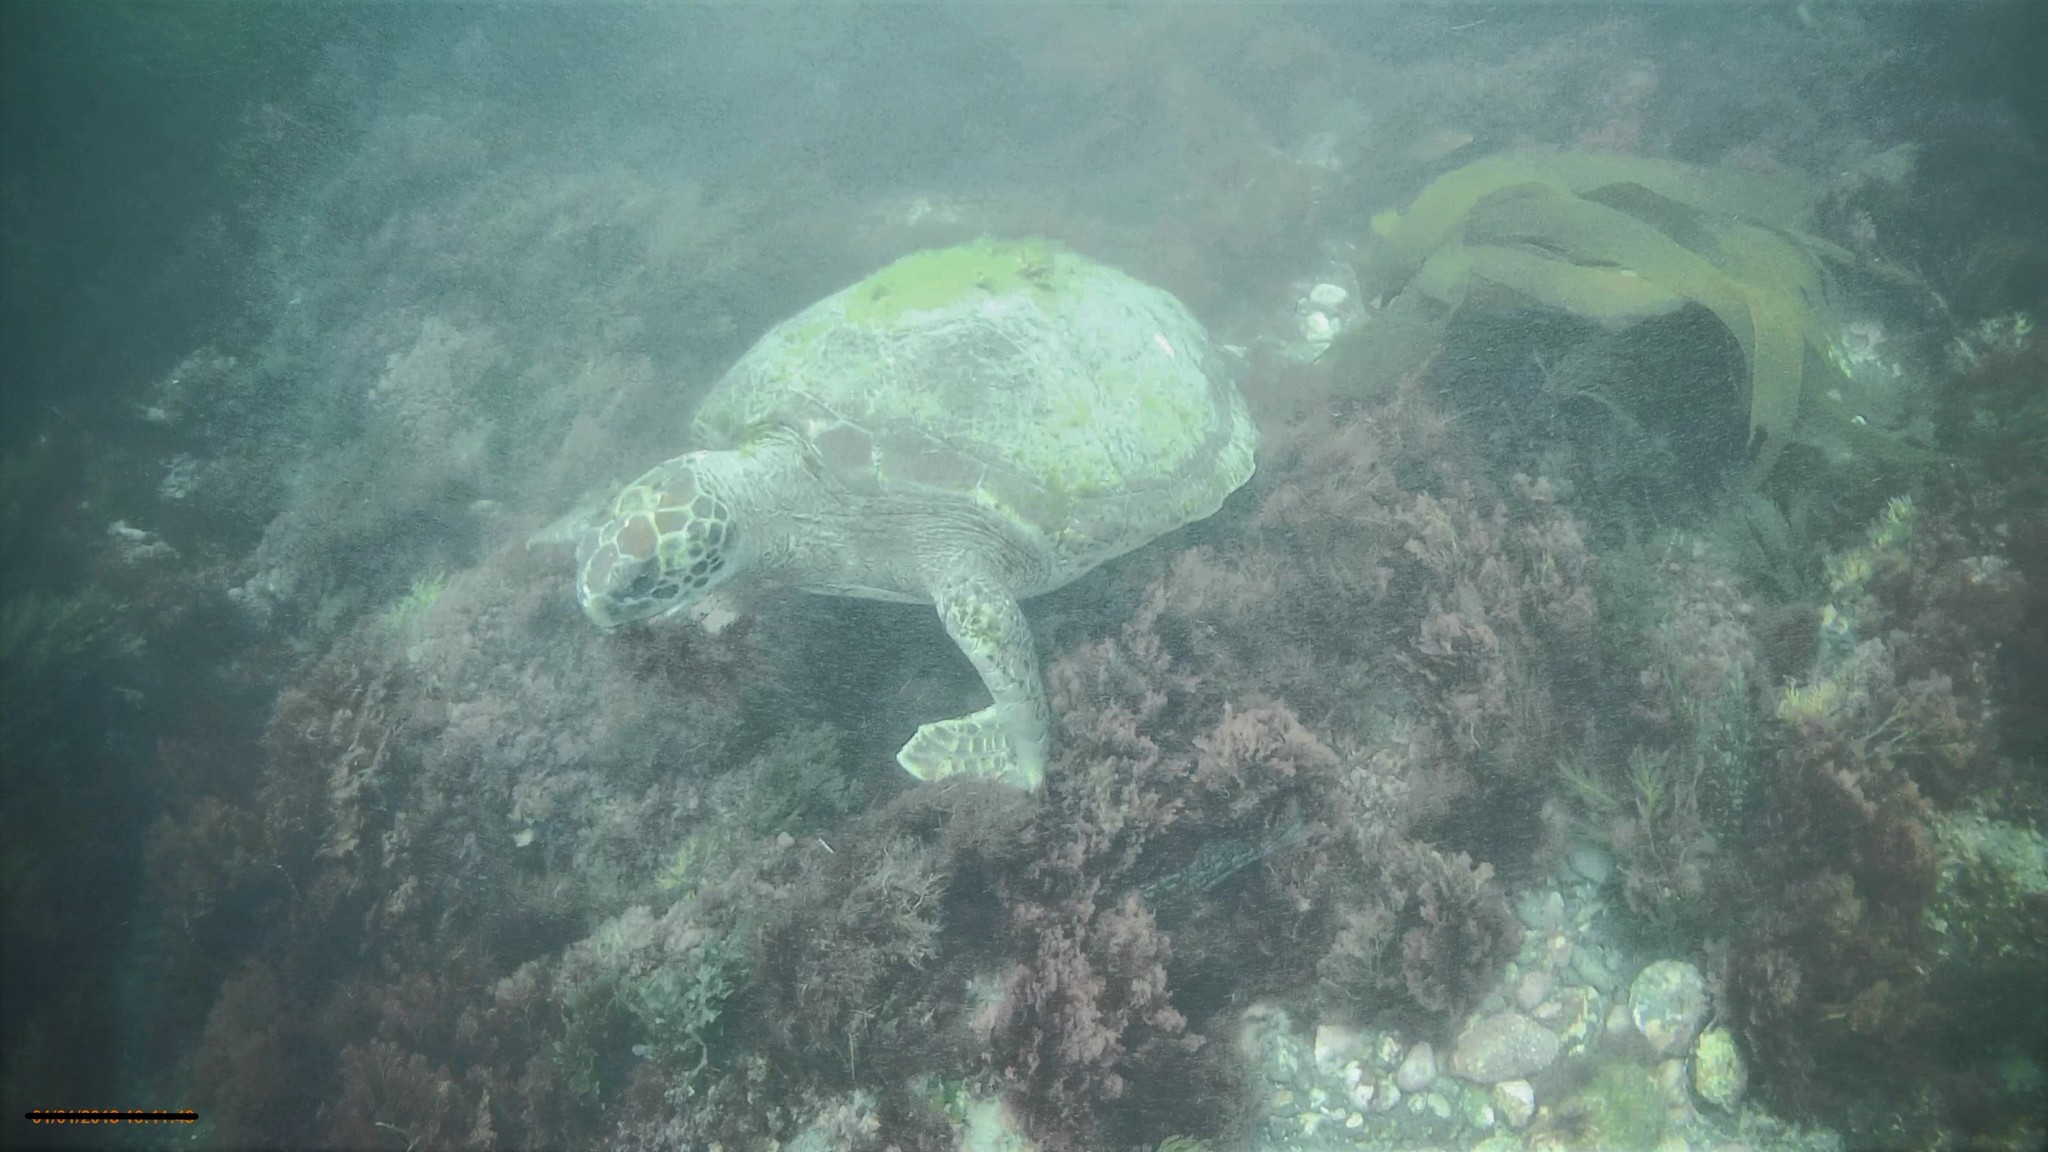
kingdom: Animalia
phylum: Chordata
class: Testudines
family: Cheloniidae
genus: Chelonia
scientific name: Chelonia mydas
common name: Green turtle
